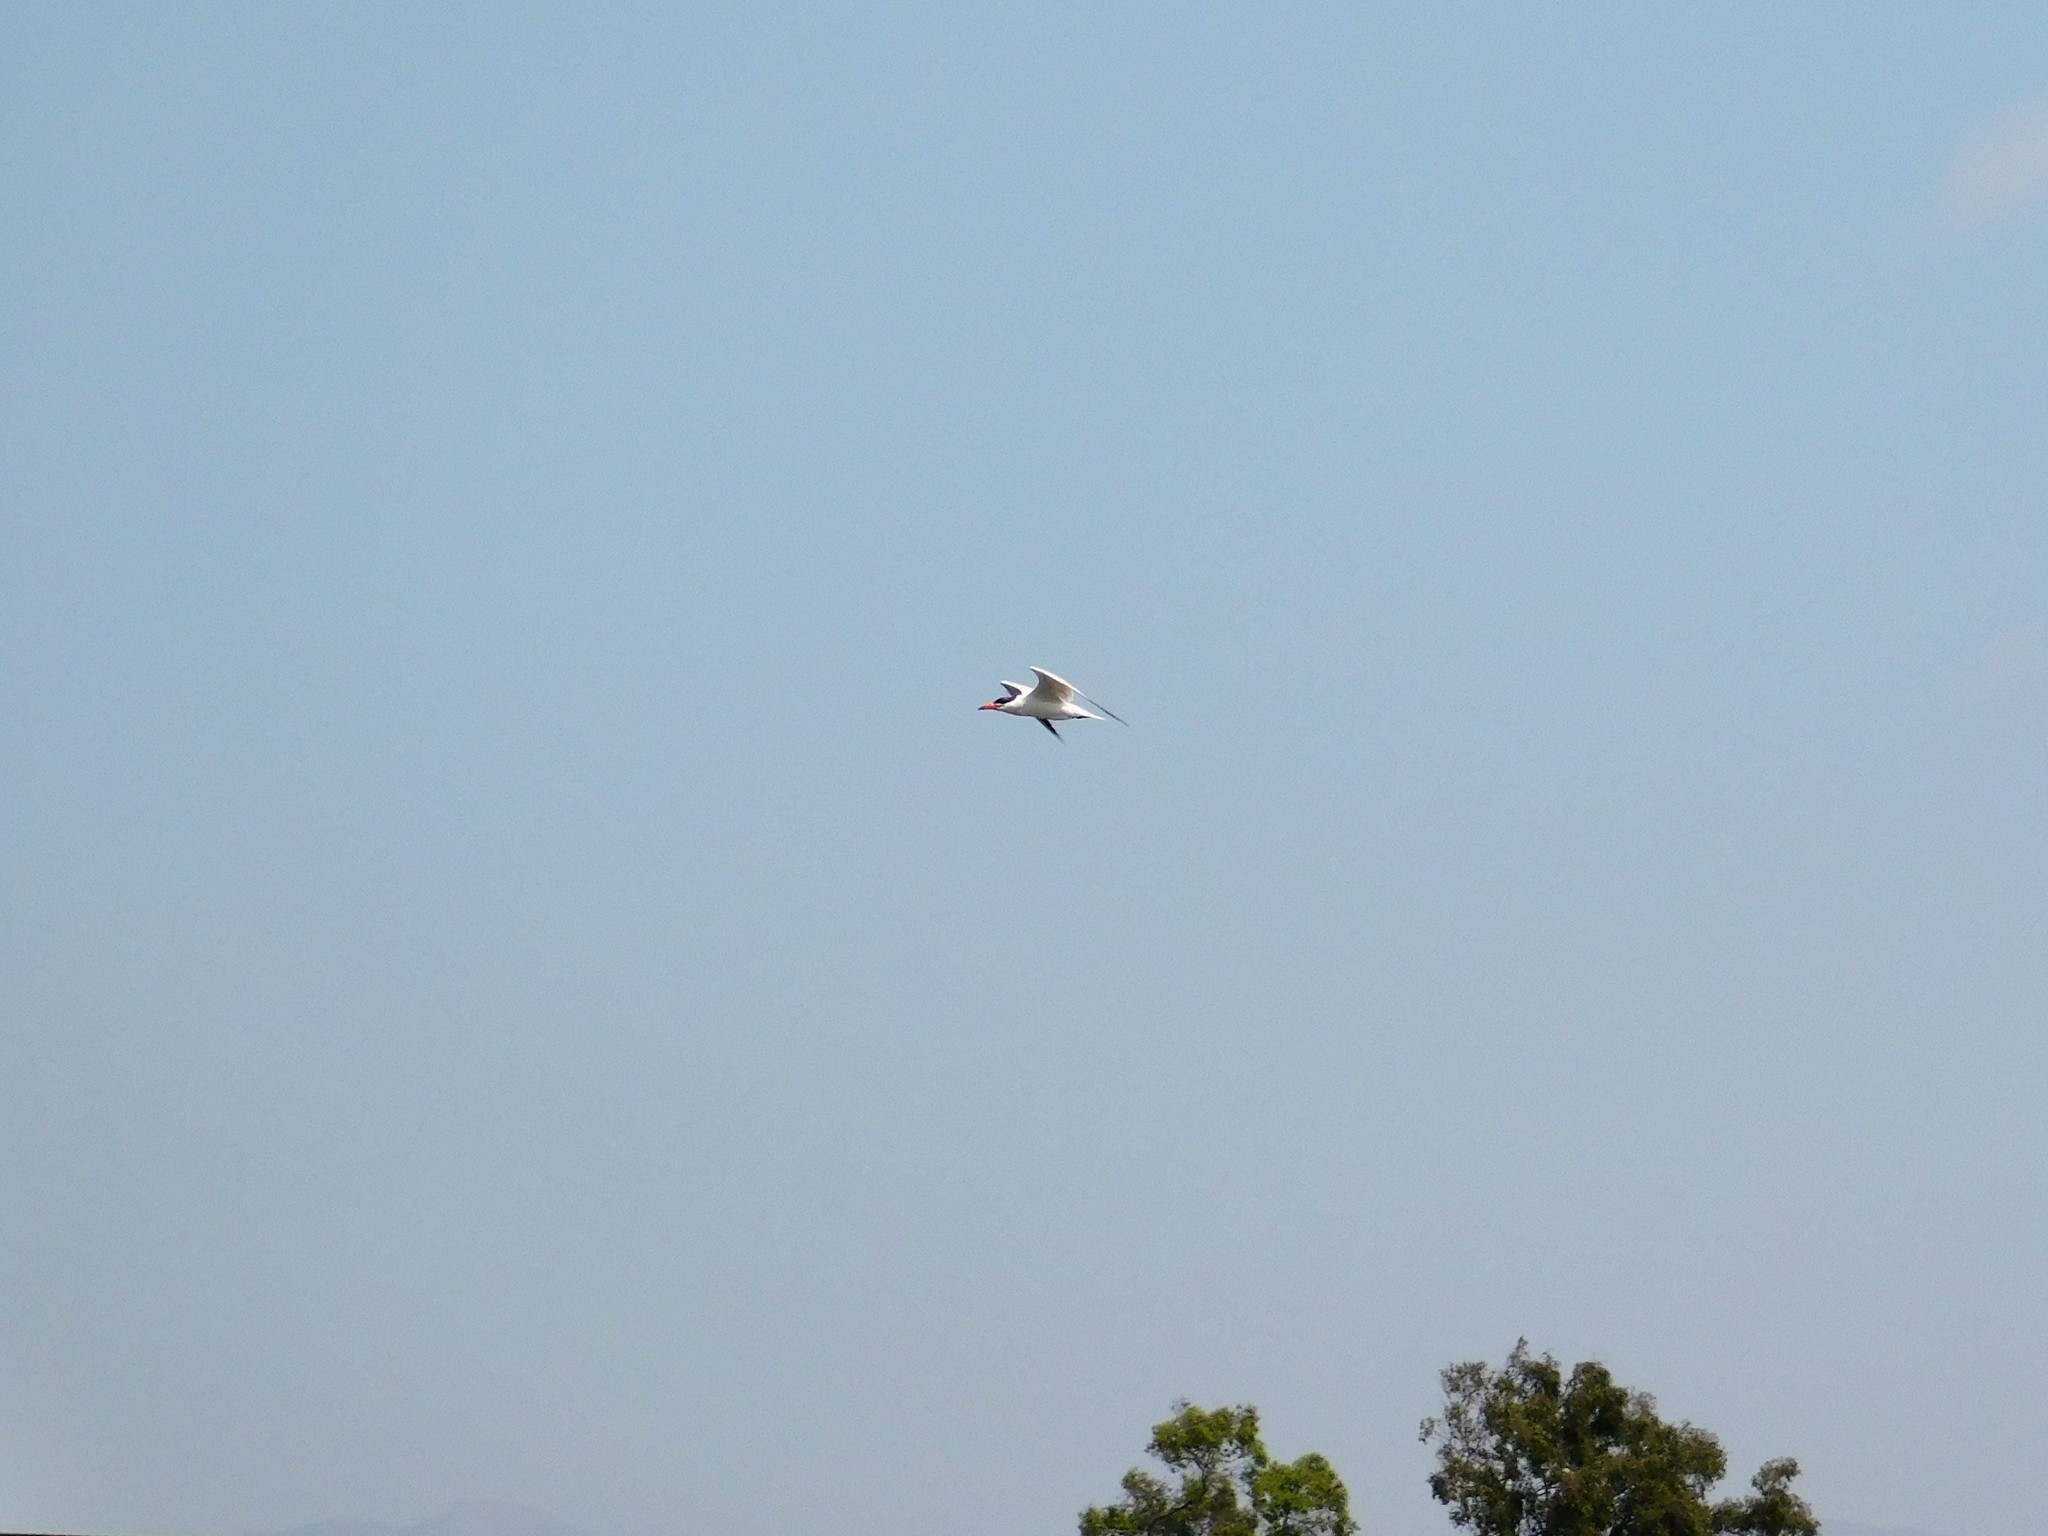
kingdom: Animalia
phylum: Chordata
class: Aves
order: Charadriiformes
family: Laridae
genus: Hydroprogne
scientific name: Hydroprogne caspia
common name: Caspian tern
